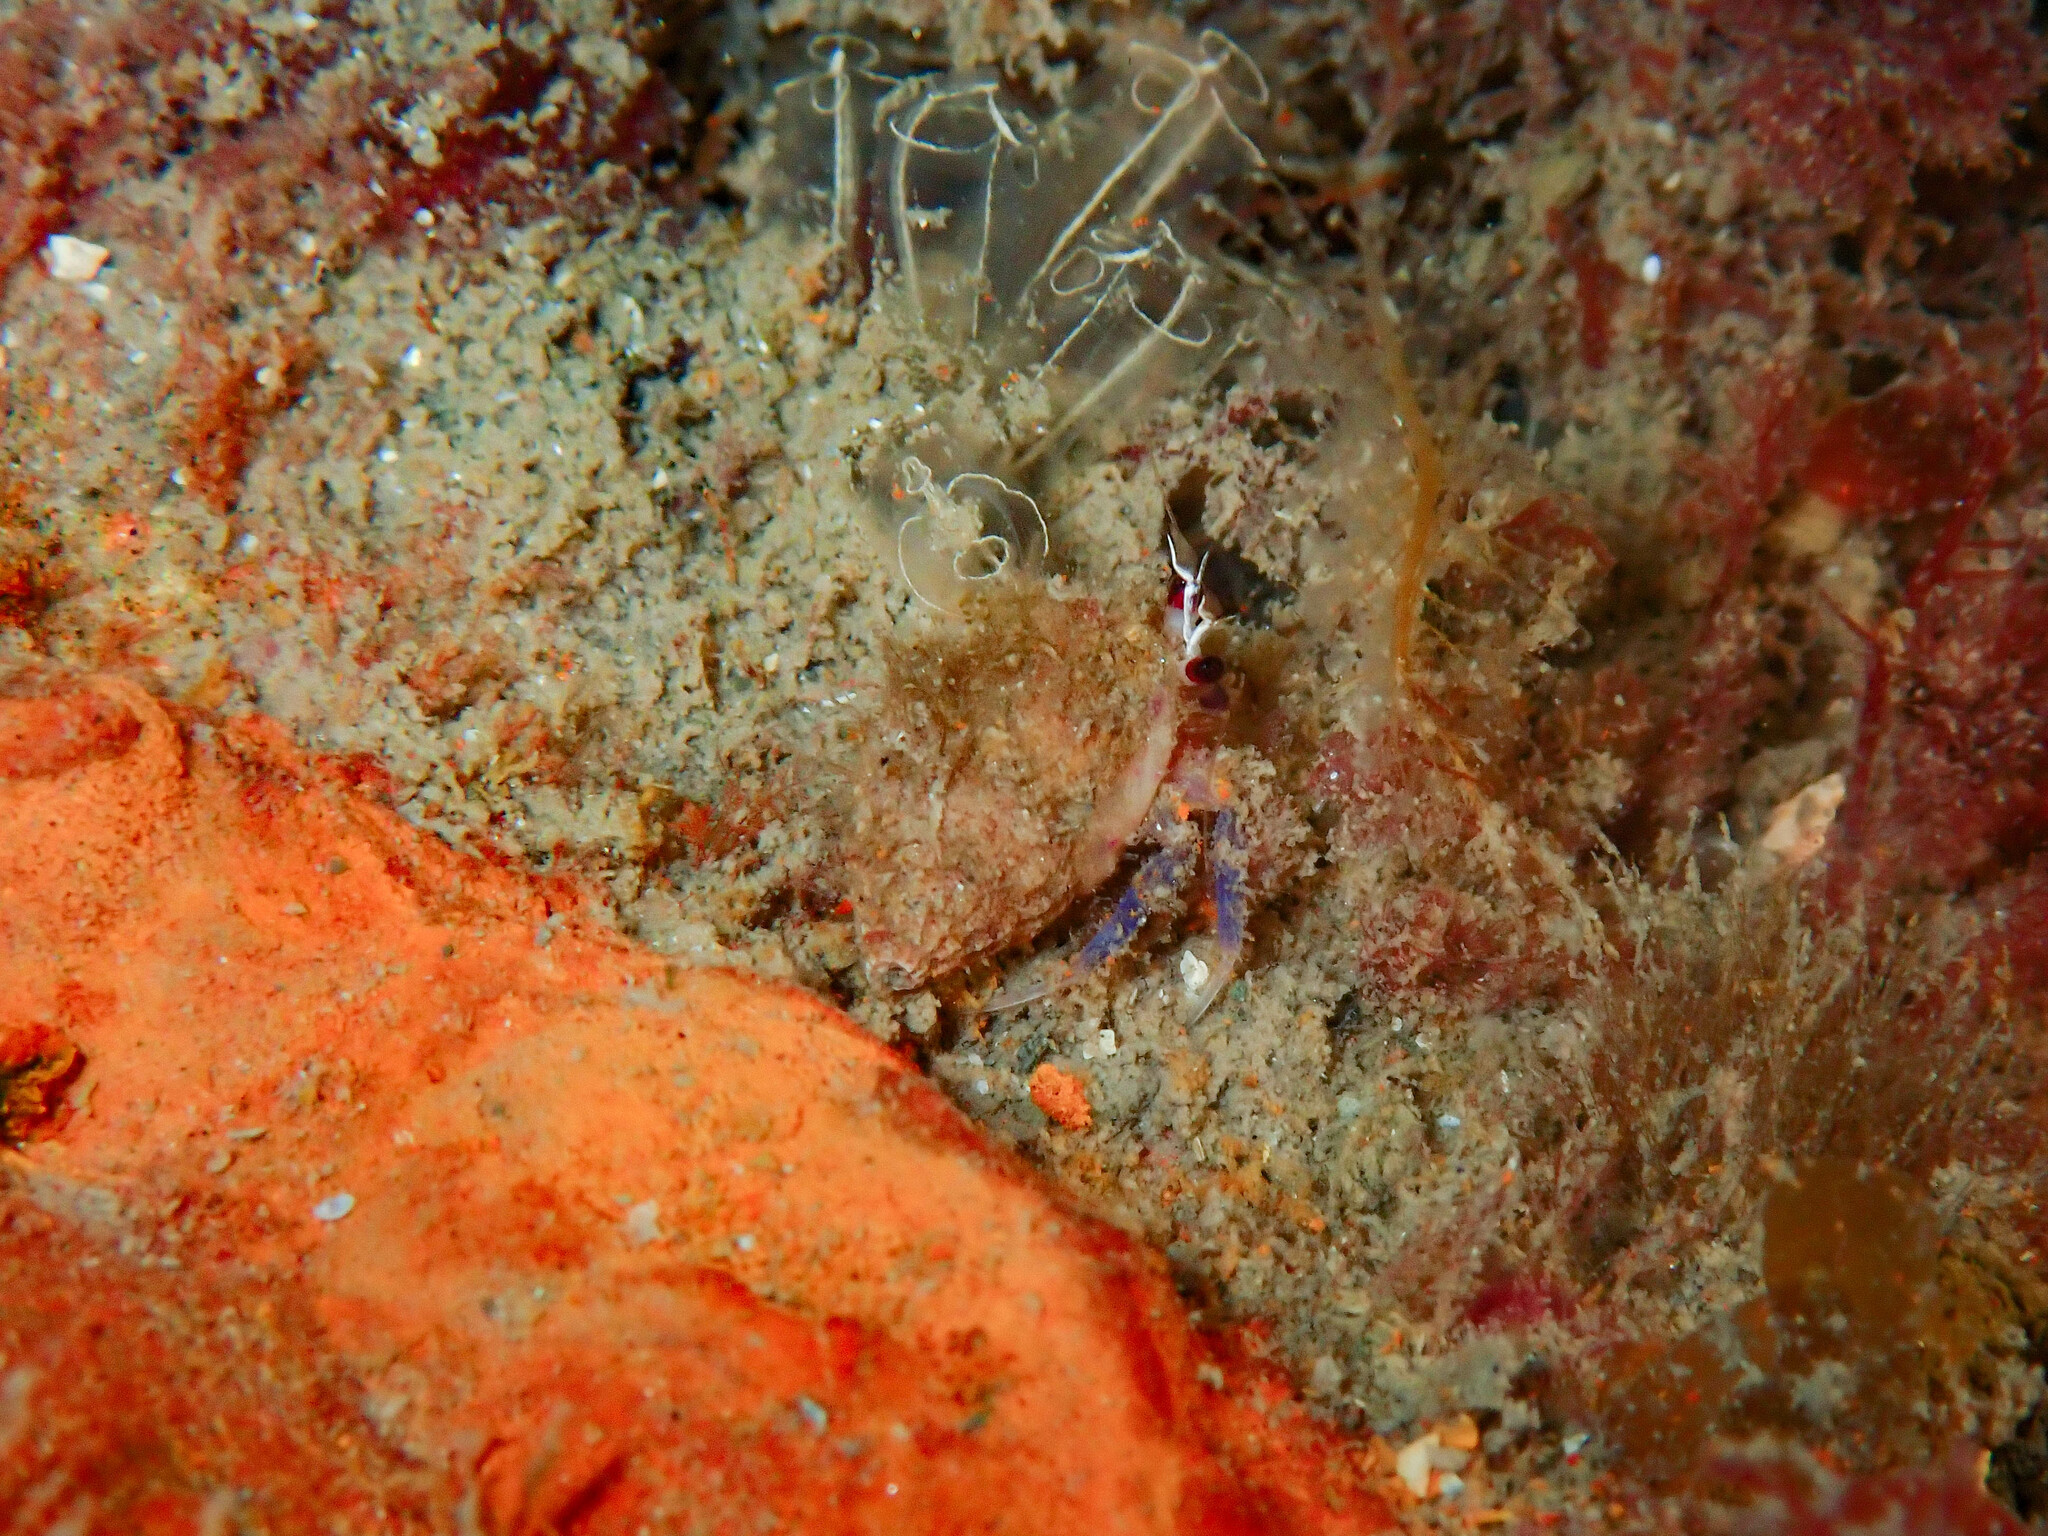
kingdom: Animalia
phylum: Cnidaria
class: Anthozoa
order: Actiniaria
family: Hormathiidae
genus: Calliactis
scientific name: Calliactis palliata
